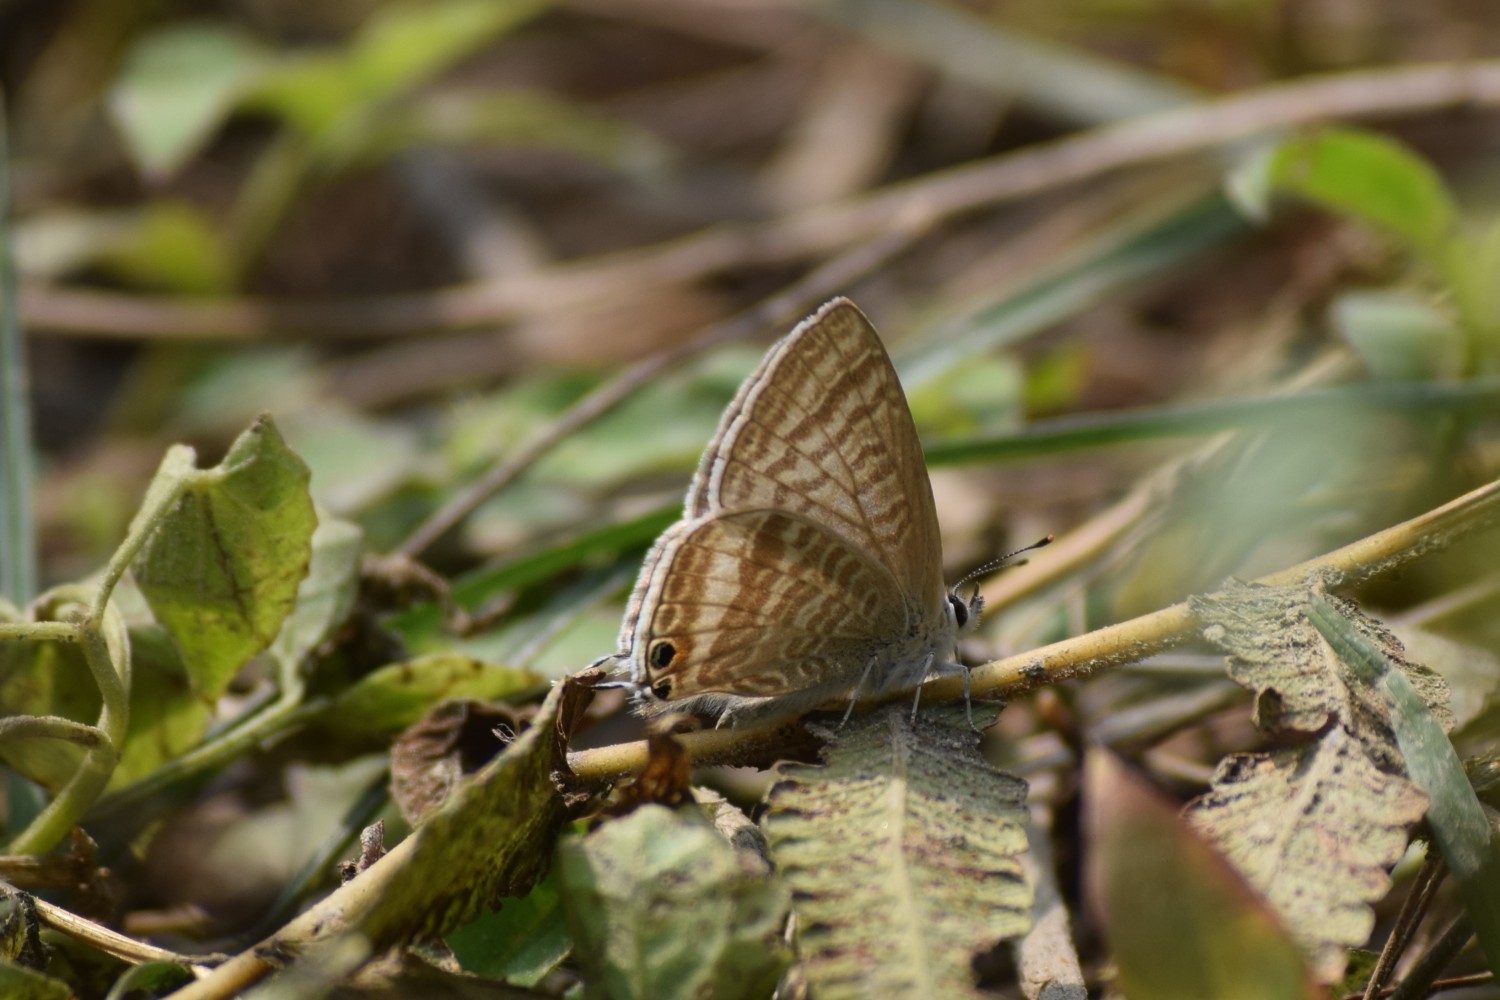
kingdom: Animalia
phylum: Arthropoda
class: Insecta
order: Lepidoptera
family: Lycaenidae
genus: Lampides
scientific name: Lampides boeticus
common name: Long-tailed blue
